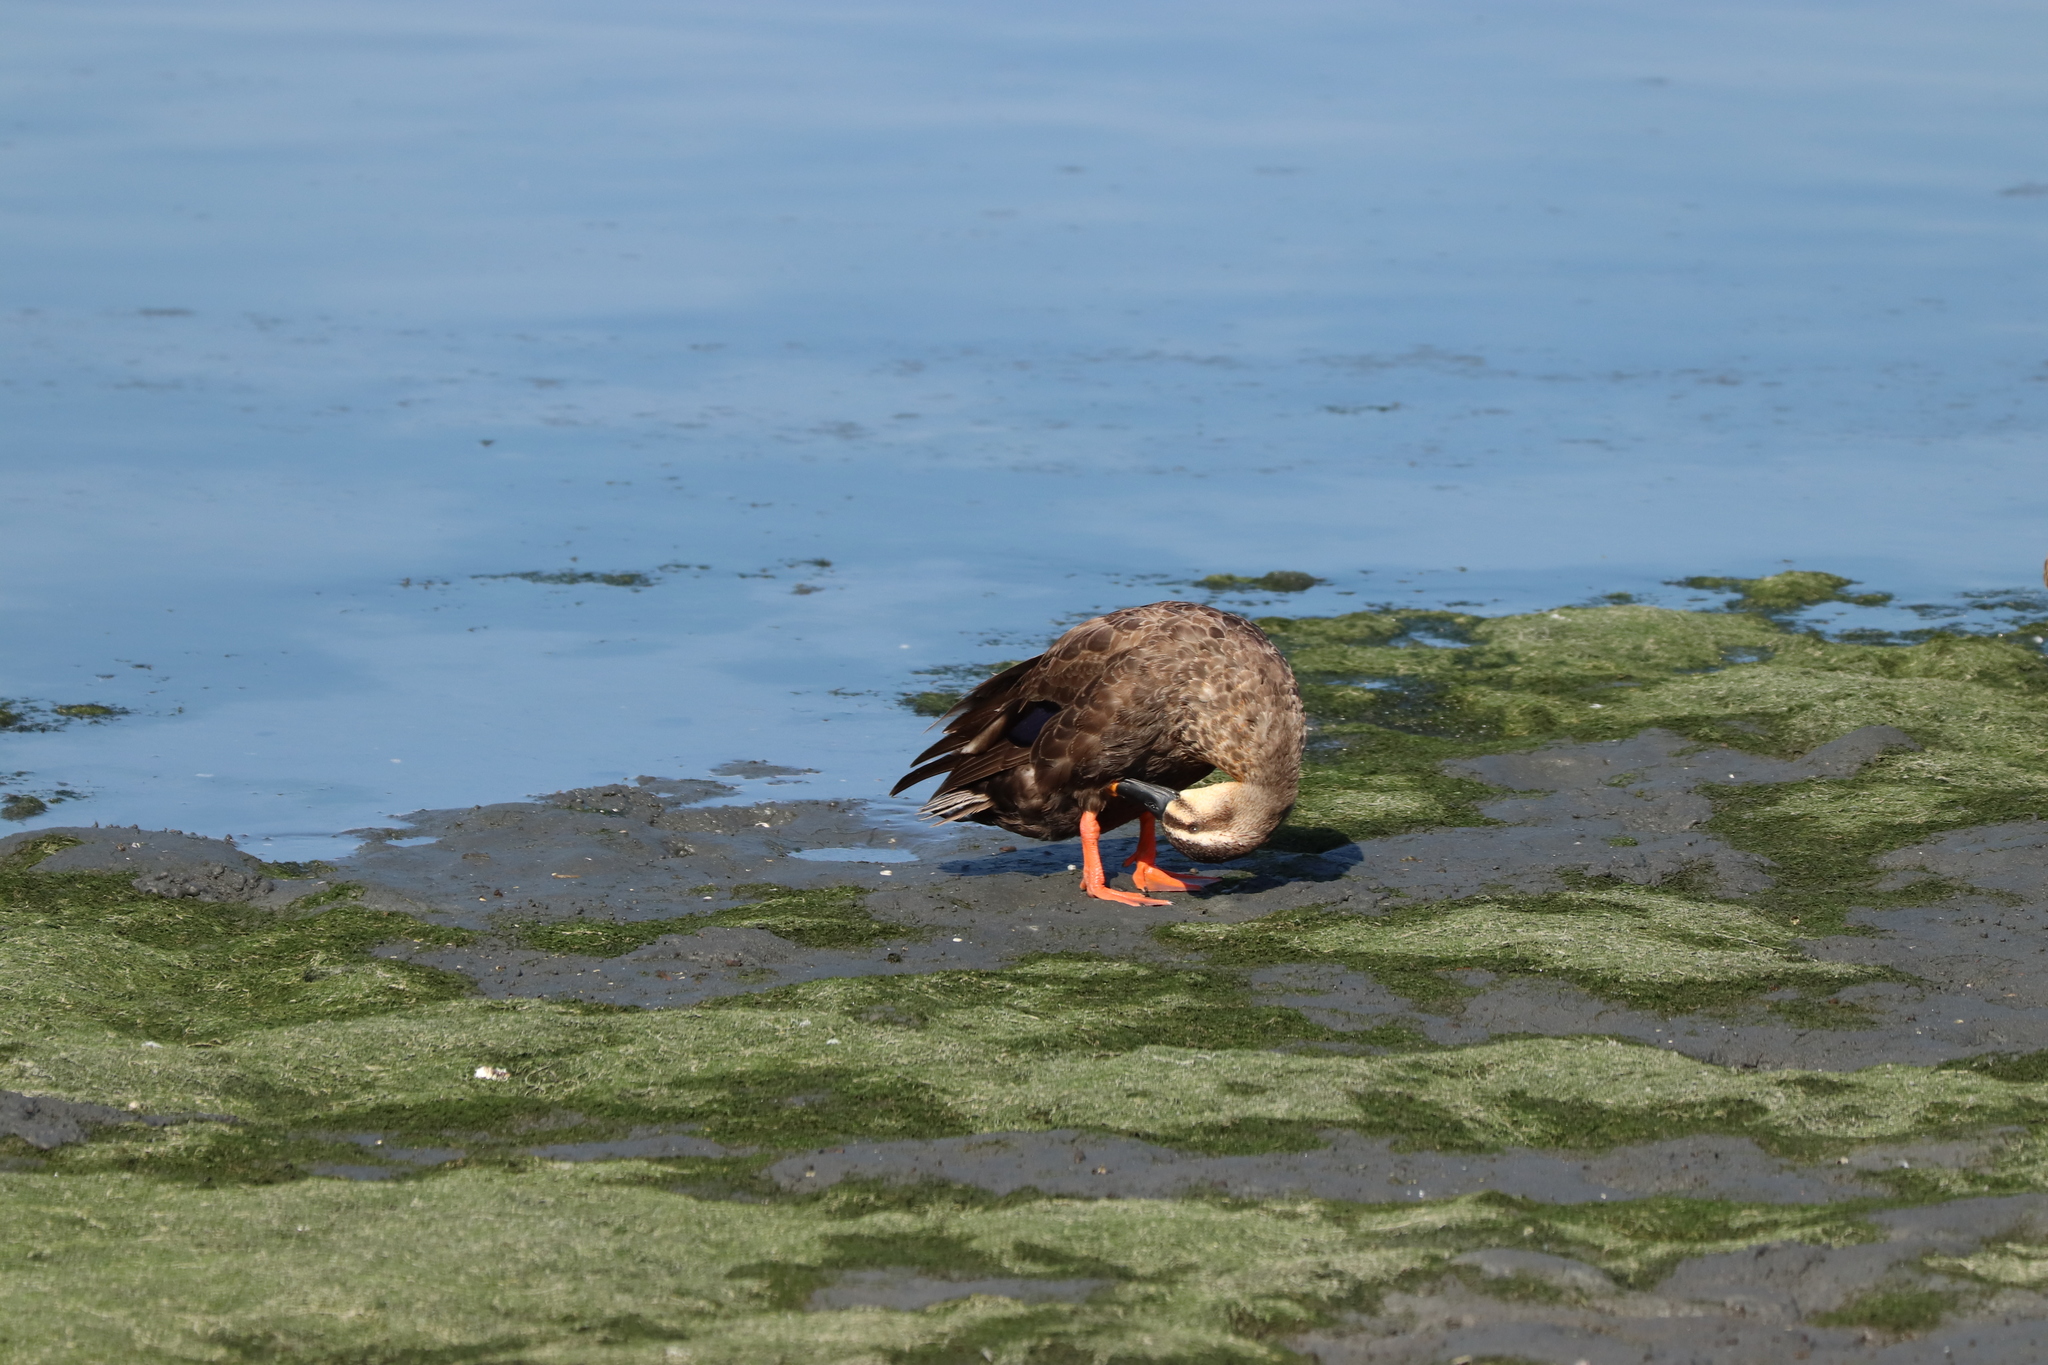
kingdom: Animalia
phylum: Chordata
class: Aves
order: Anseriformes
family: Anatidae
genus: Anas
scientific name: Anas zonorhyncha
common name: Eastern spot-billed duck
